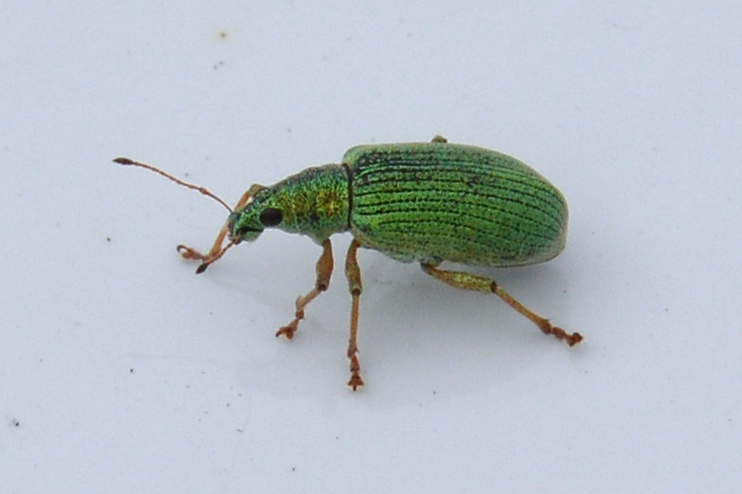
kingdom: Animalia
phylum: Arthropoda
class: Insecta
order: Coleoptera
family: Curculionidae
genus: Polydrusus
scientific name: Polydrusus formosus
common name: Weevil
